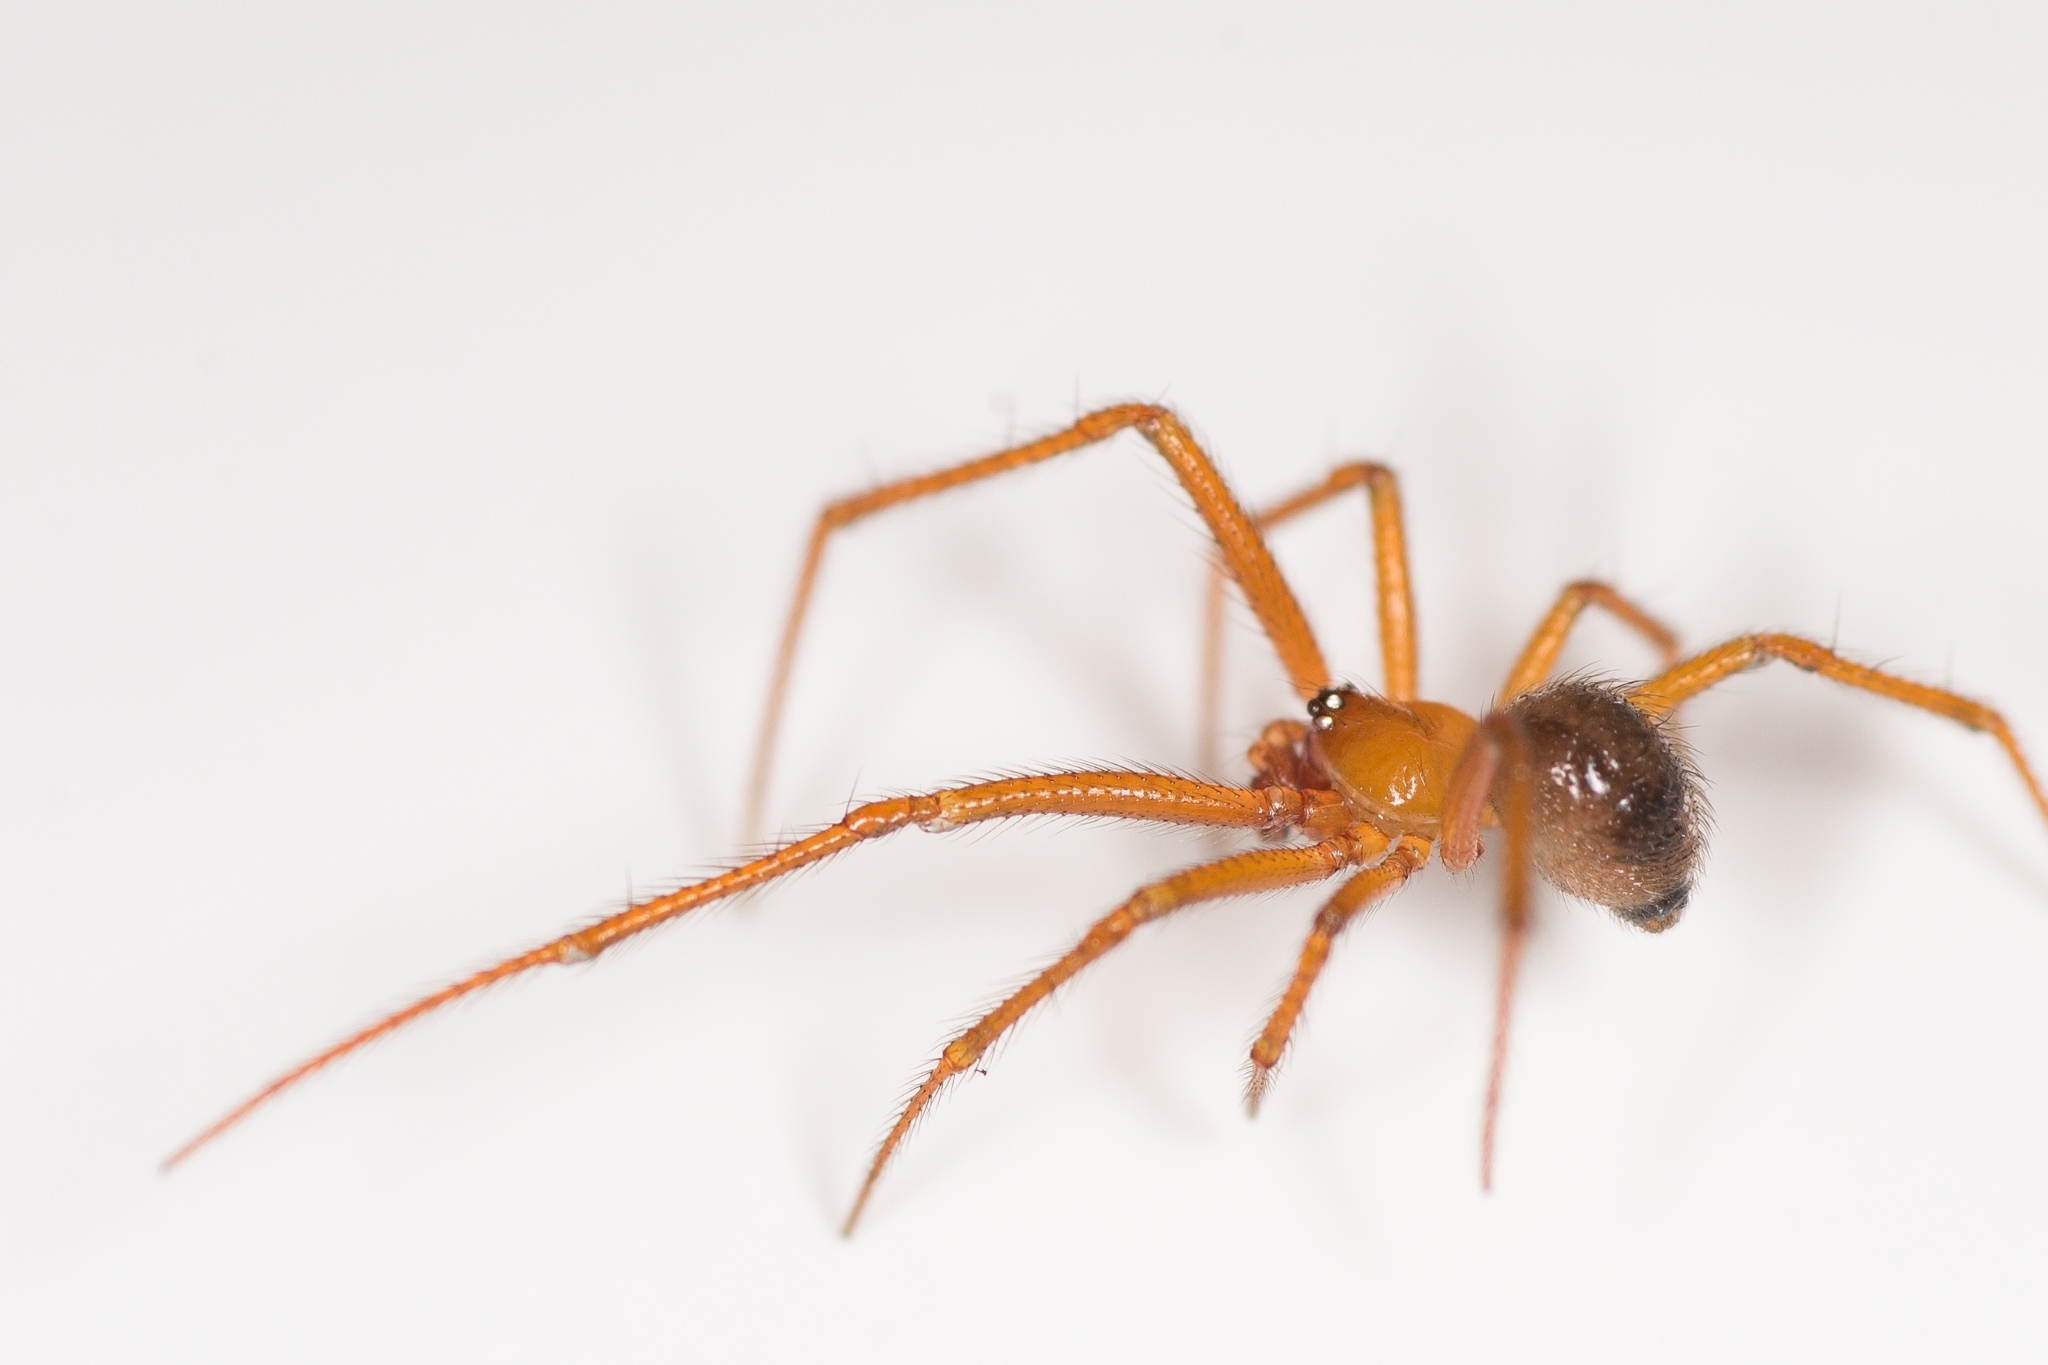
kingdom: Animalia
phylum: Arthropoda
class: Arachnida
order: Araneae
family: Theridiidae
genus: Nesticodes
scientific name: Nesticodes rufipes
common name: Cobweb spiders
